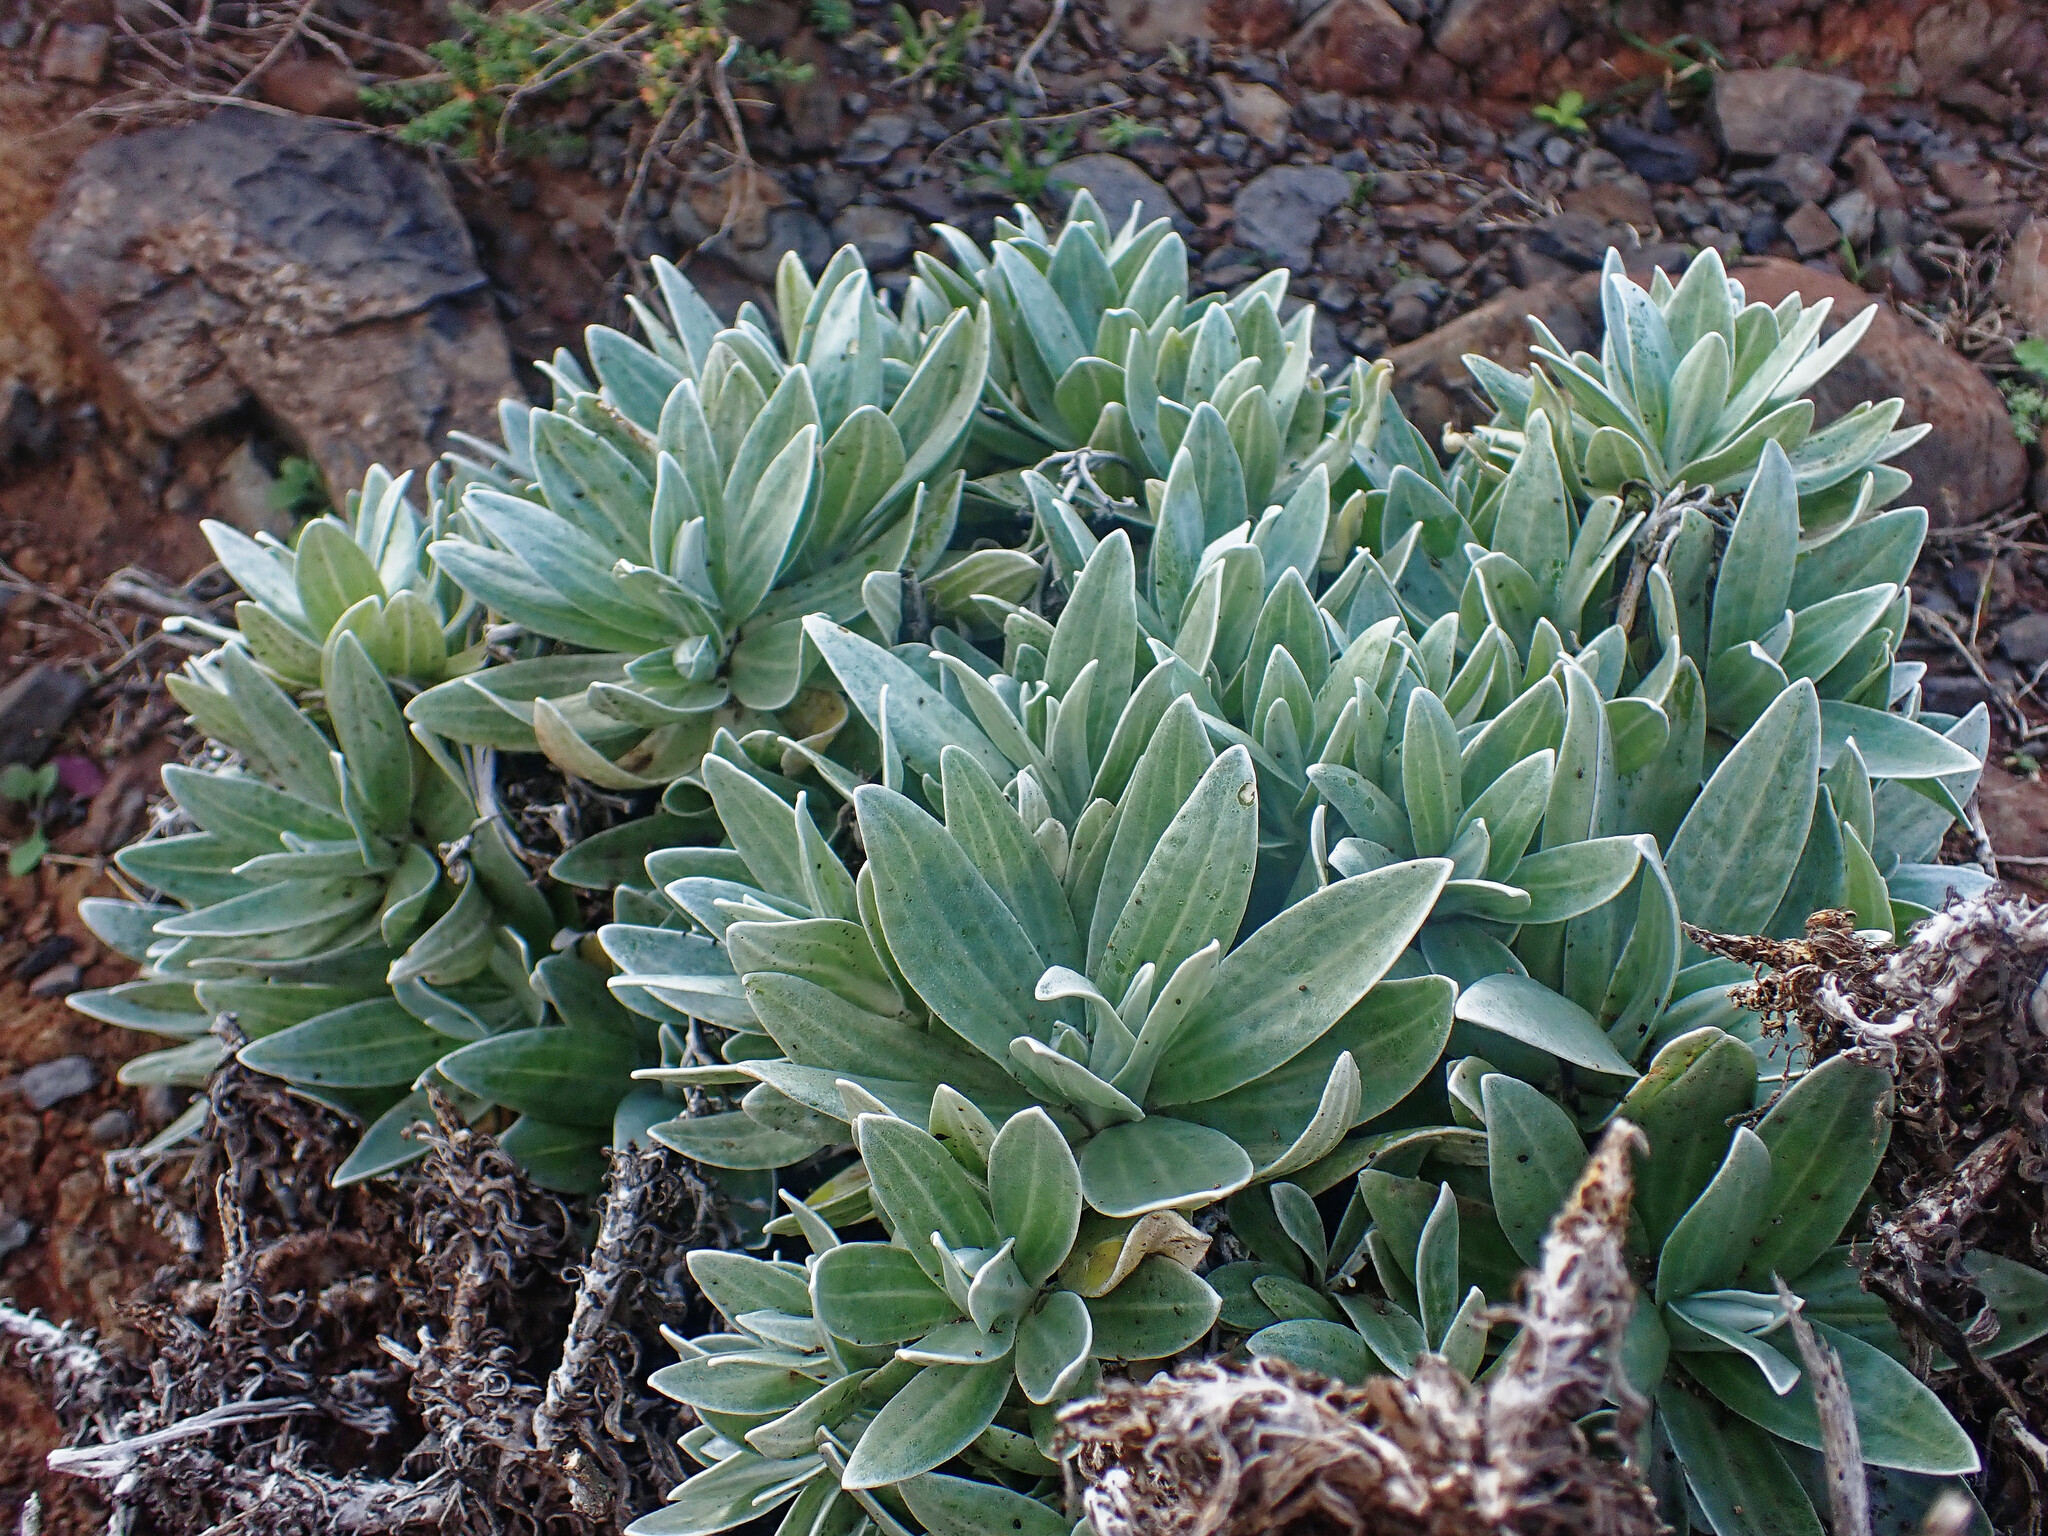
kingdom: Plantae
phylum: Tracheophyta
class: Magnoliopsida
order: Asterales
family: Asteraceae
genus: Helichrysum
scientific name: Helichrysum devium
